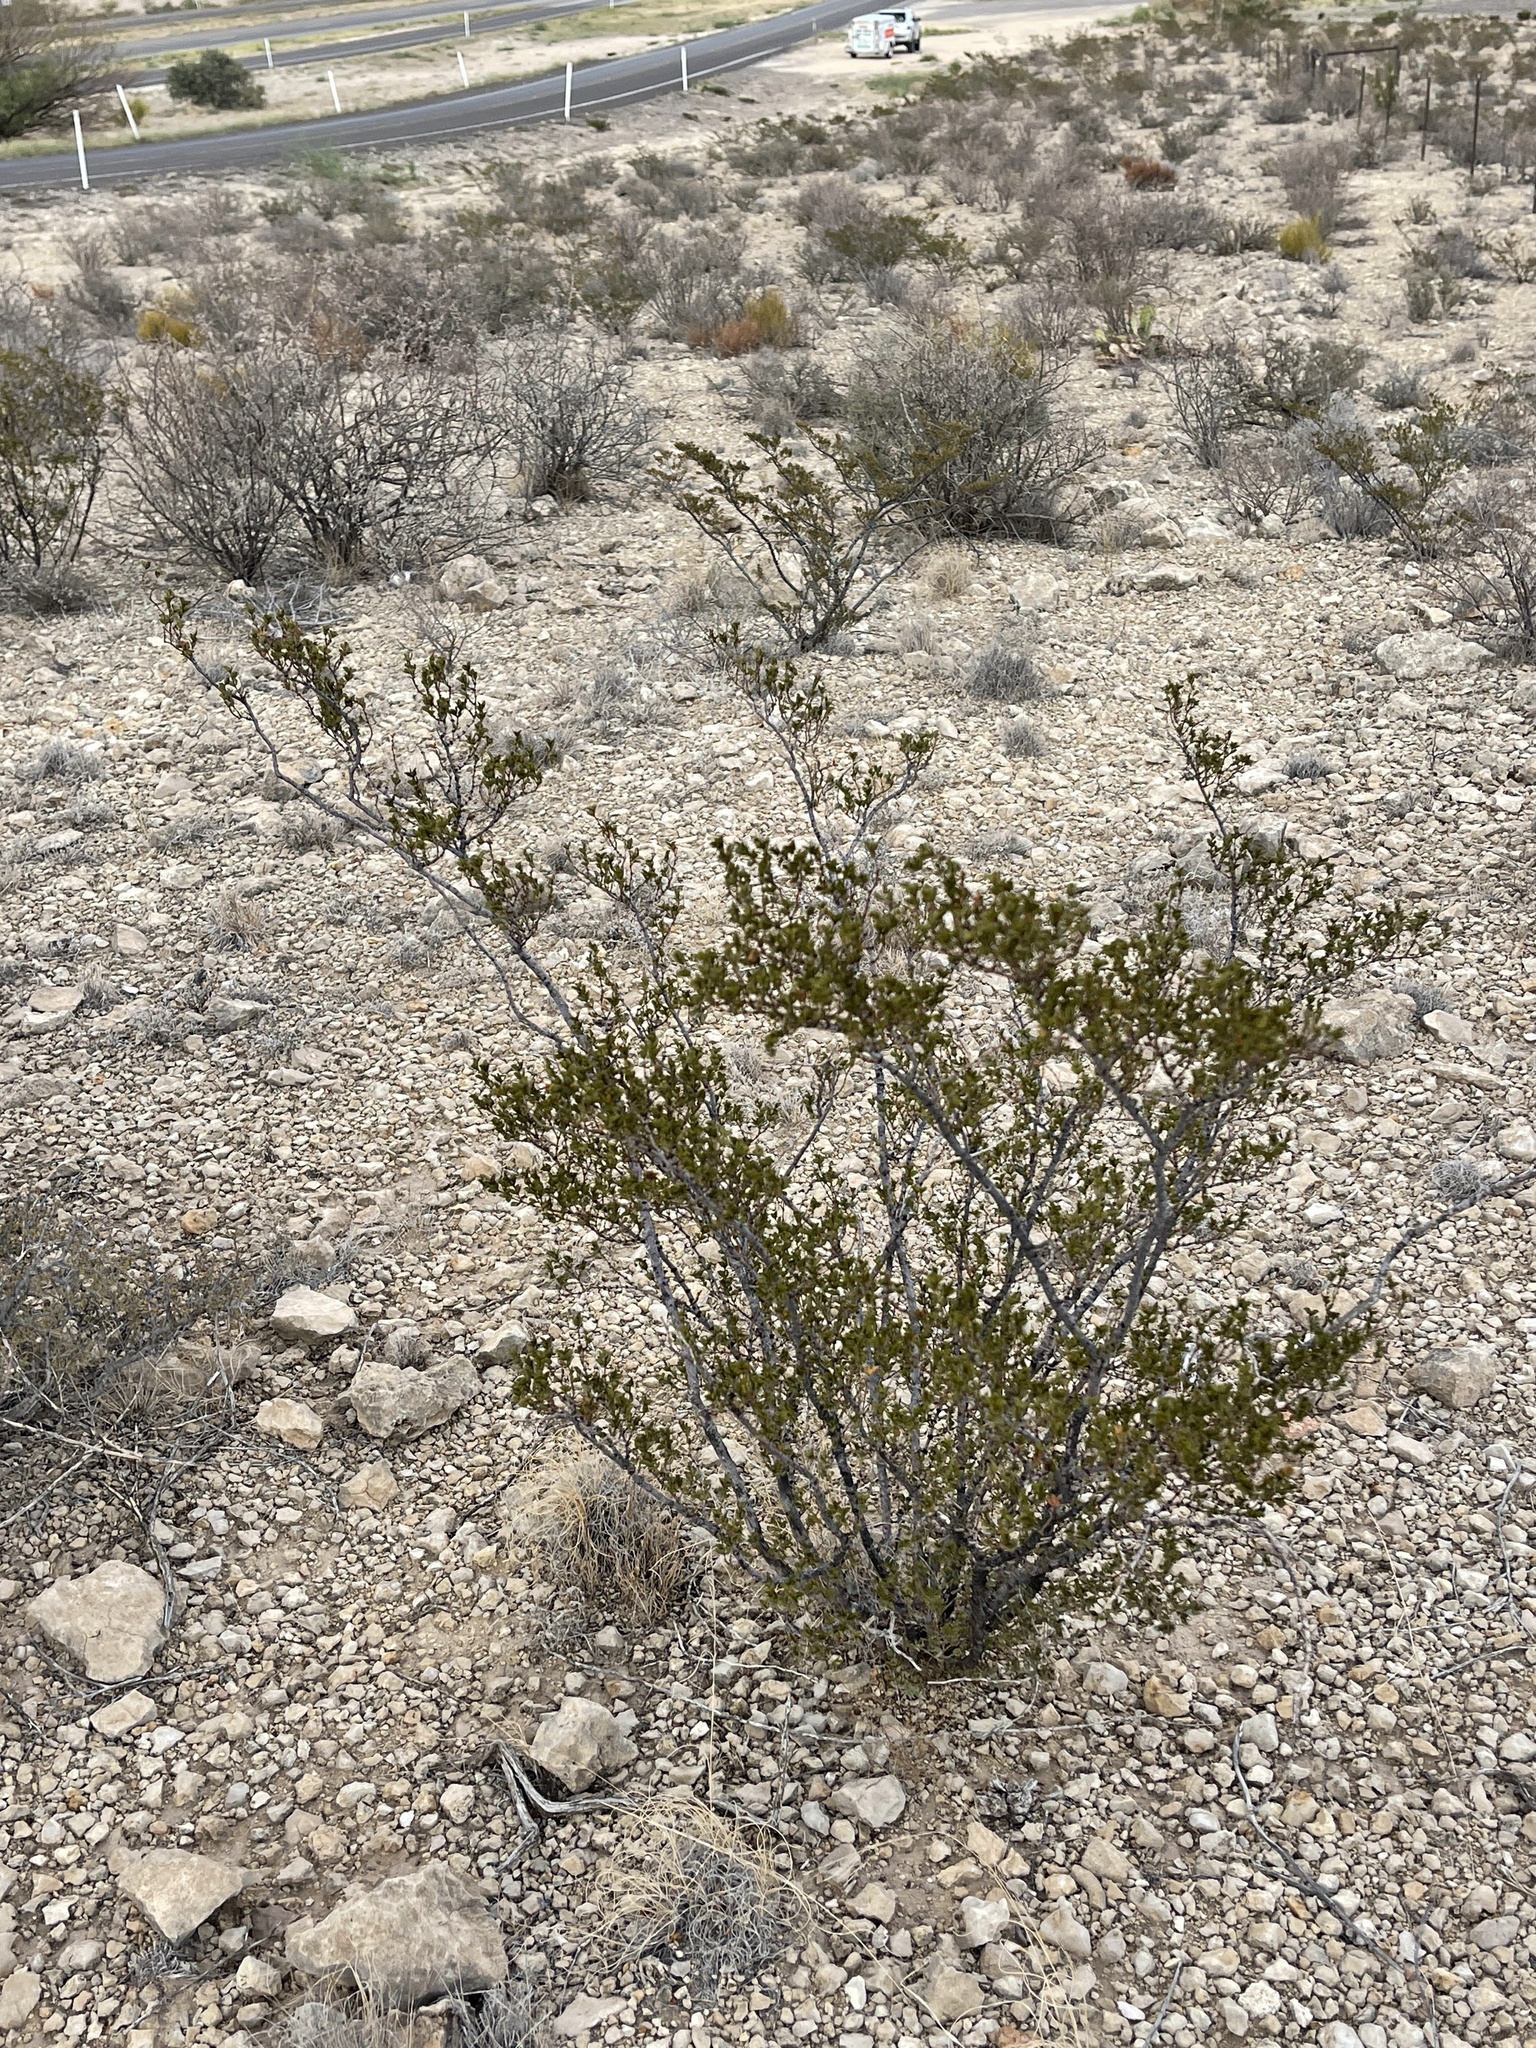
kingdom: Plantae
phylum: Tracheophyta
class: Magnoliopsida
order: Zygophyllales
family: Zygophyllaceae
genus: Larrea
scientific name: Larrea tridentata
